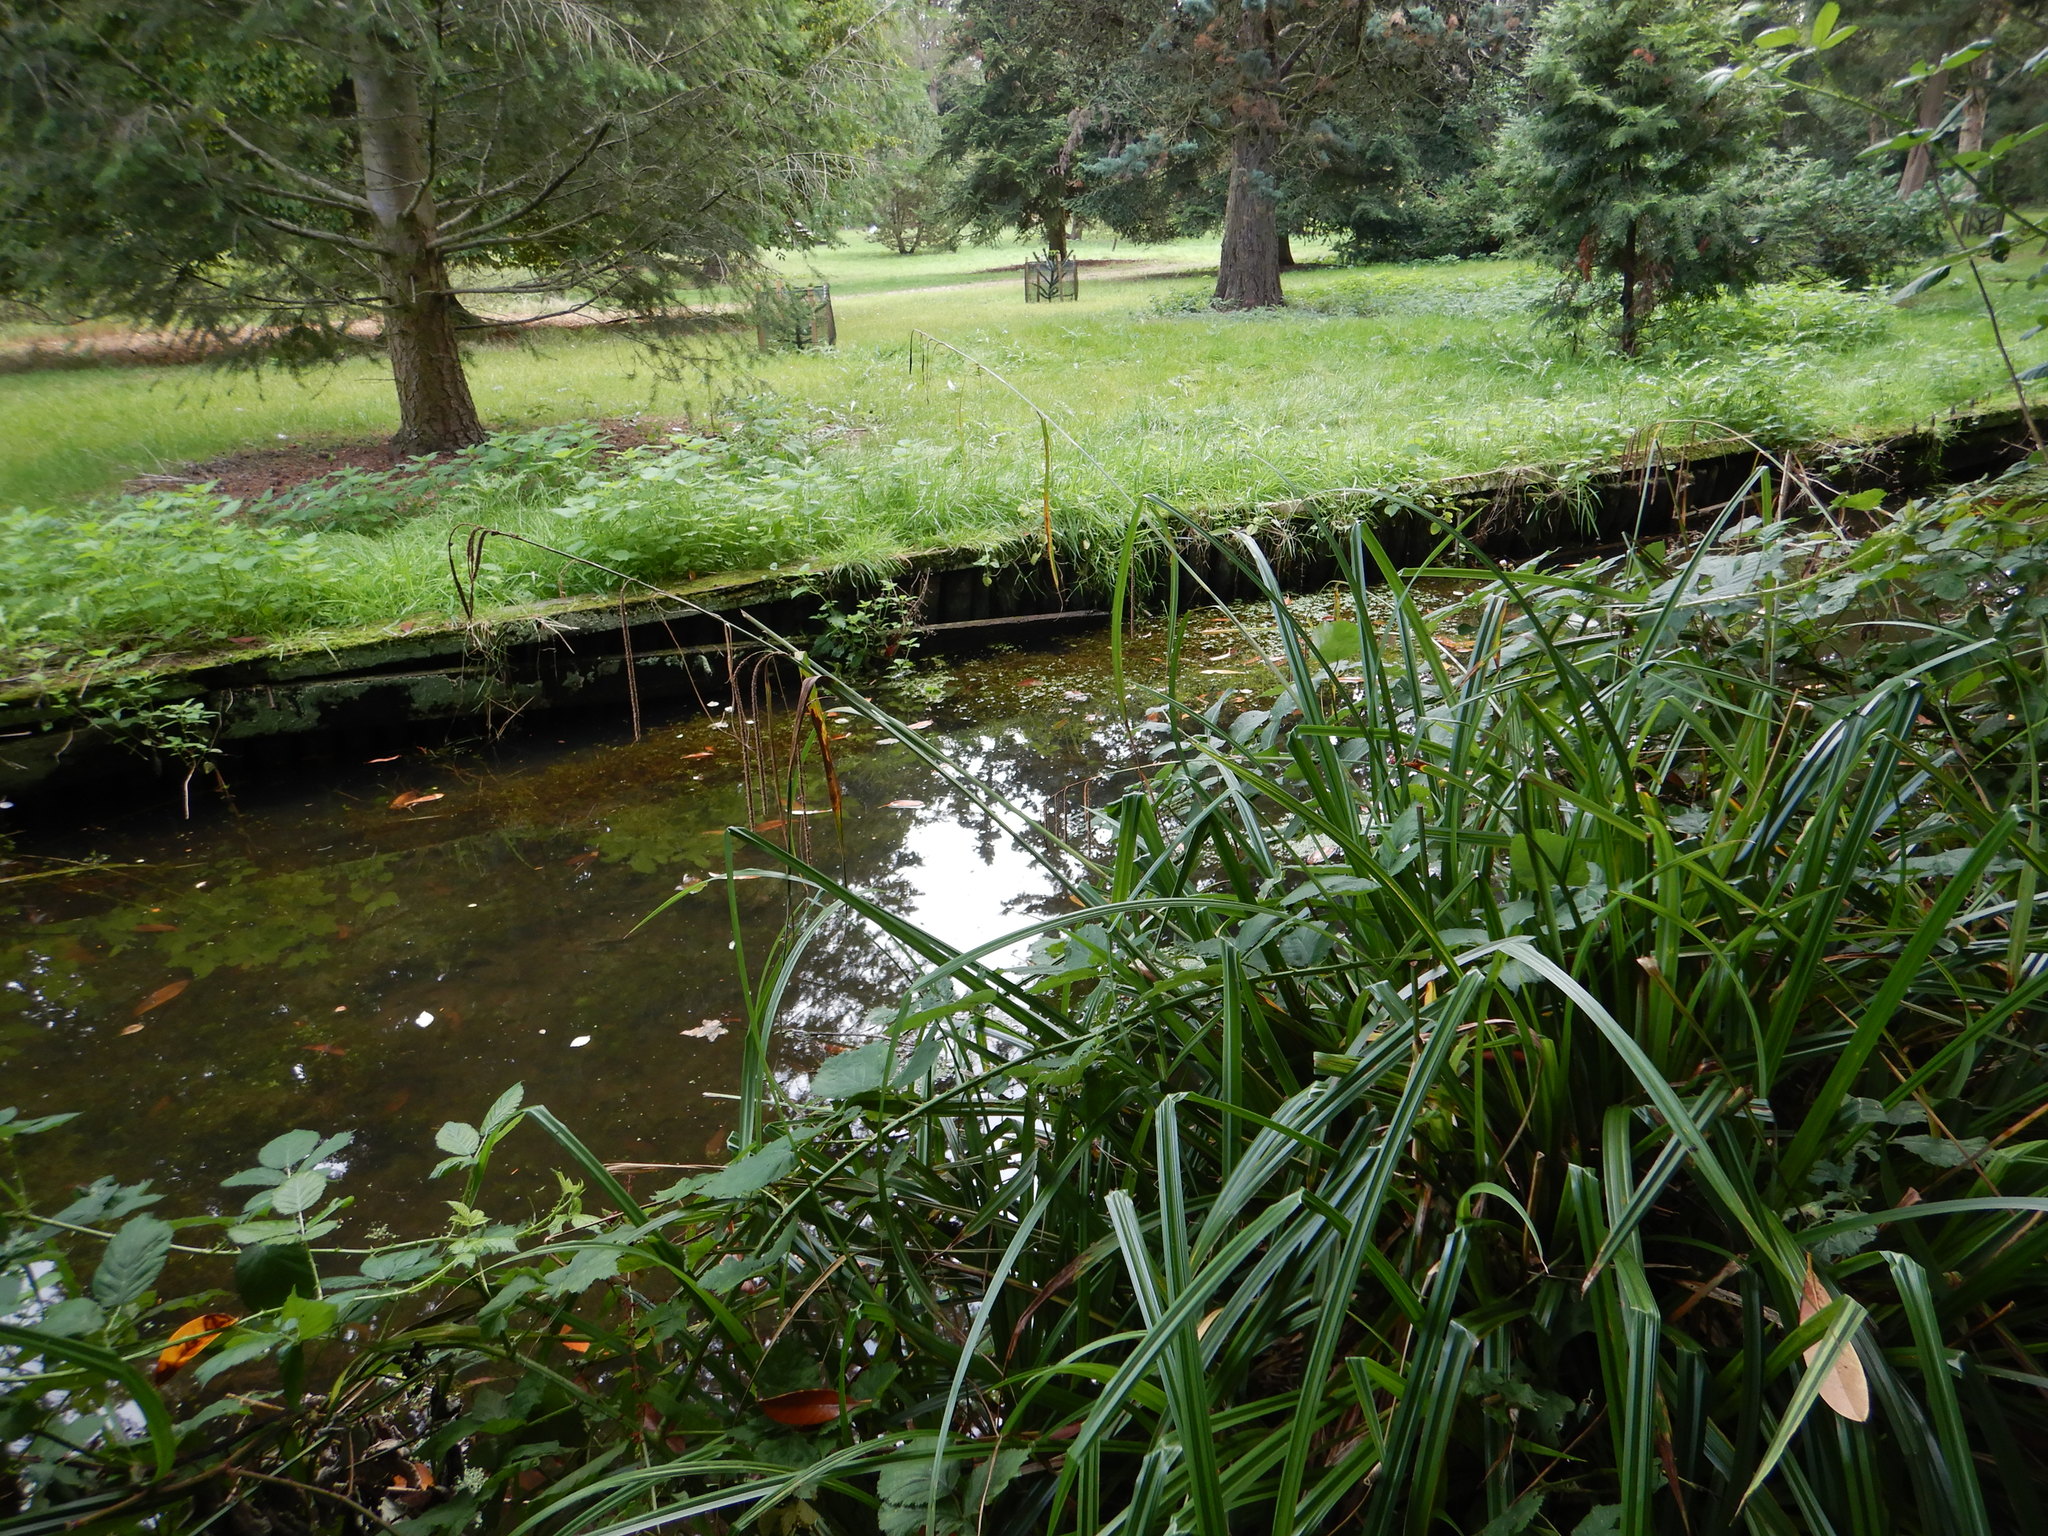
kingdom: Plantae
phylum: Tracheophyta
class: Liliopsida
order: Poales
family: Cyperaceae
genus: Carex
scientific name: Carex pendula
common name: Pendulous sedge
